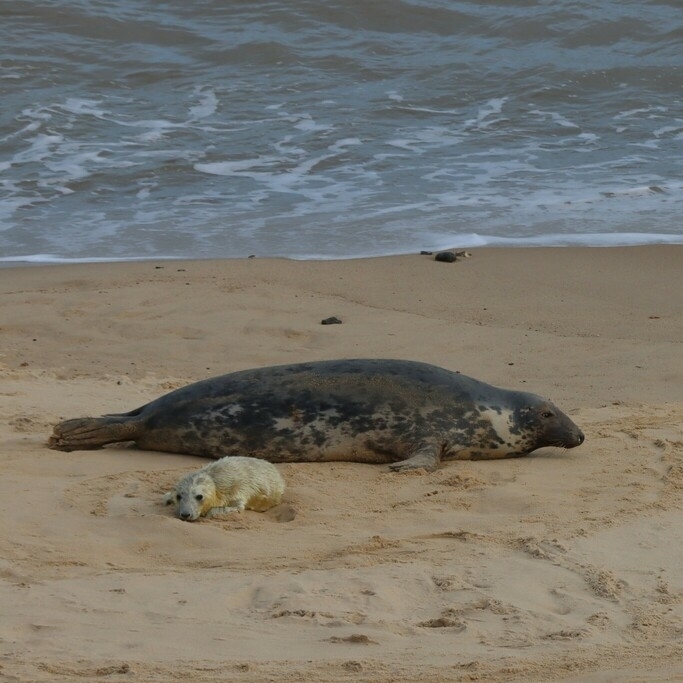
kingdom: Animalia
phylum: Chordata
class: Mammalia
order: Carnivora
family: Phocidae
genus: Halichoerus
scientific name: Halichoerus grypus
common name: Grey seal
